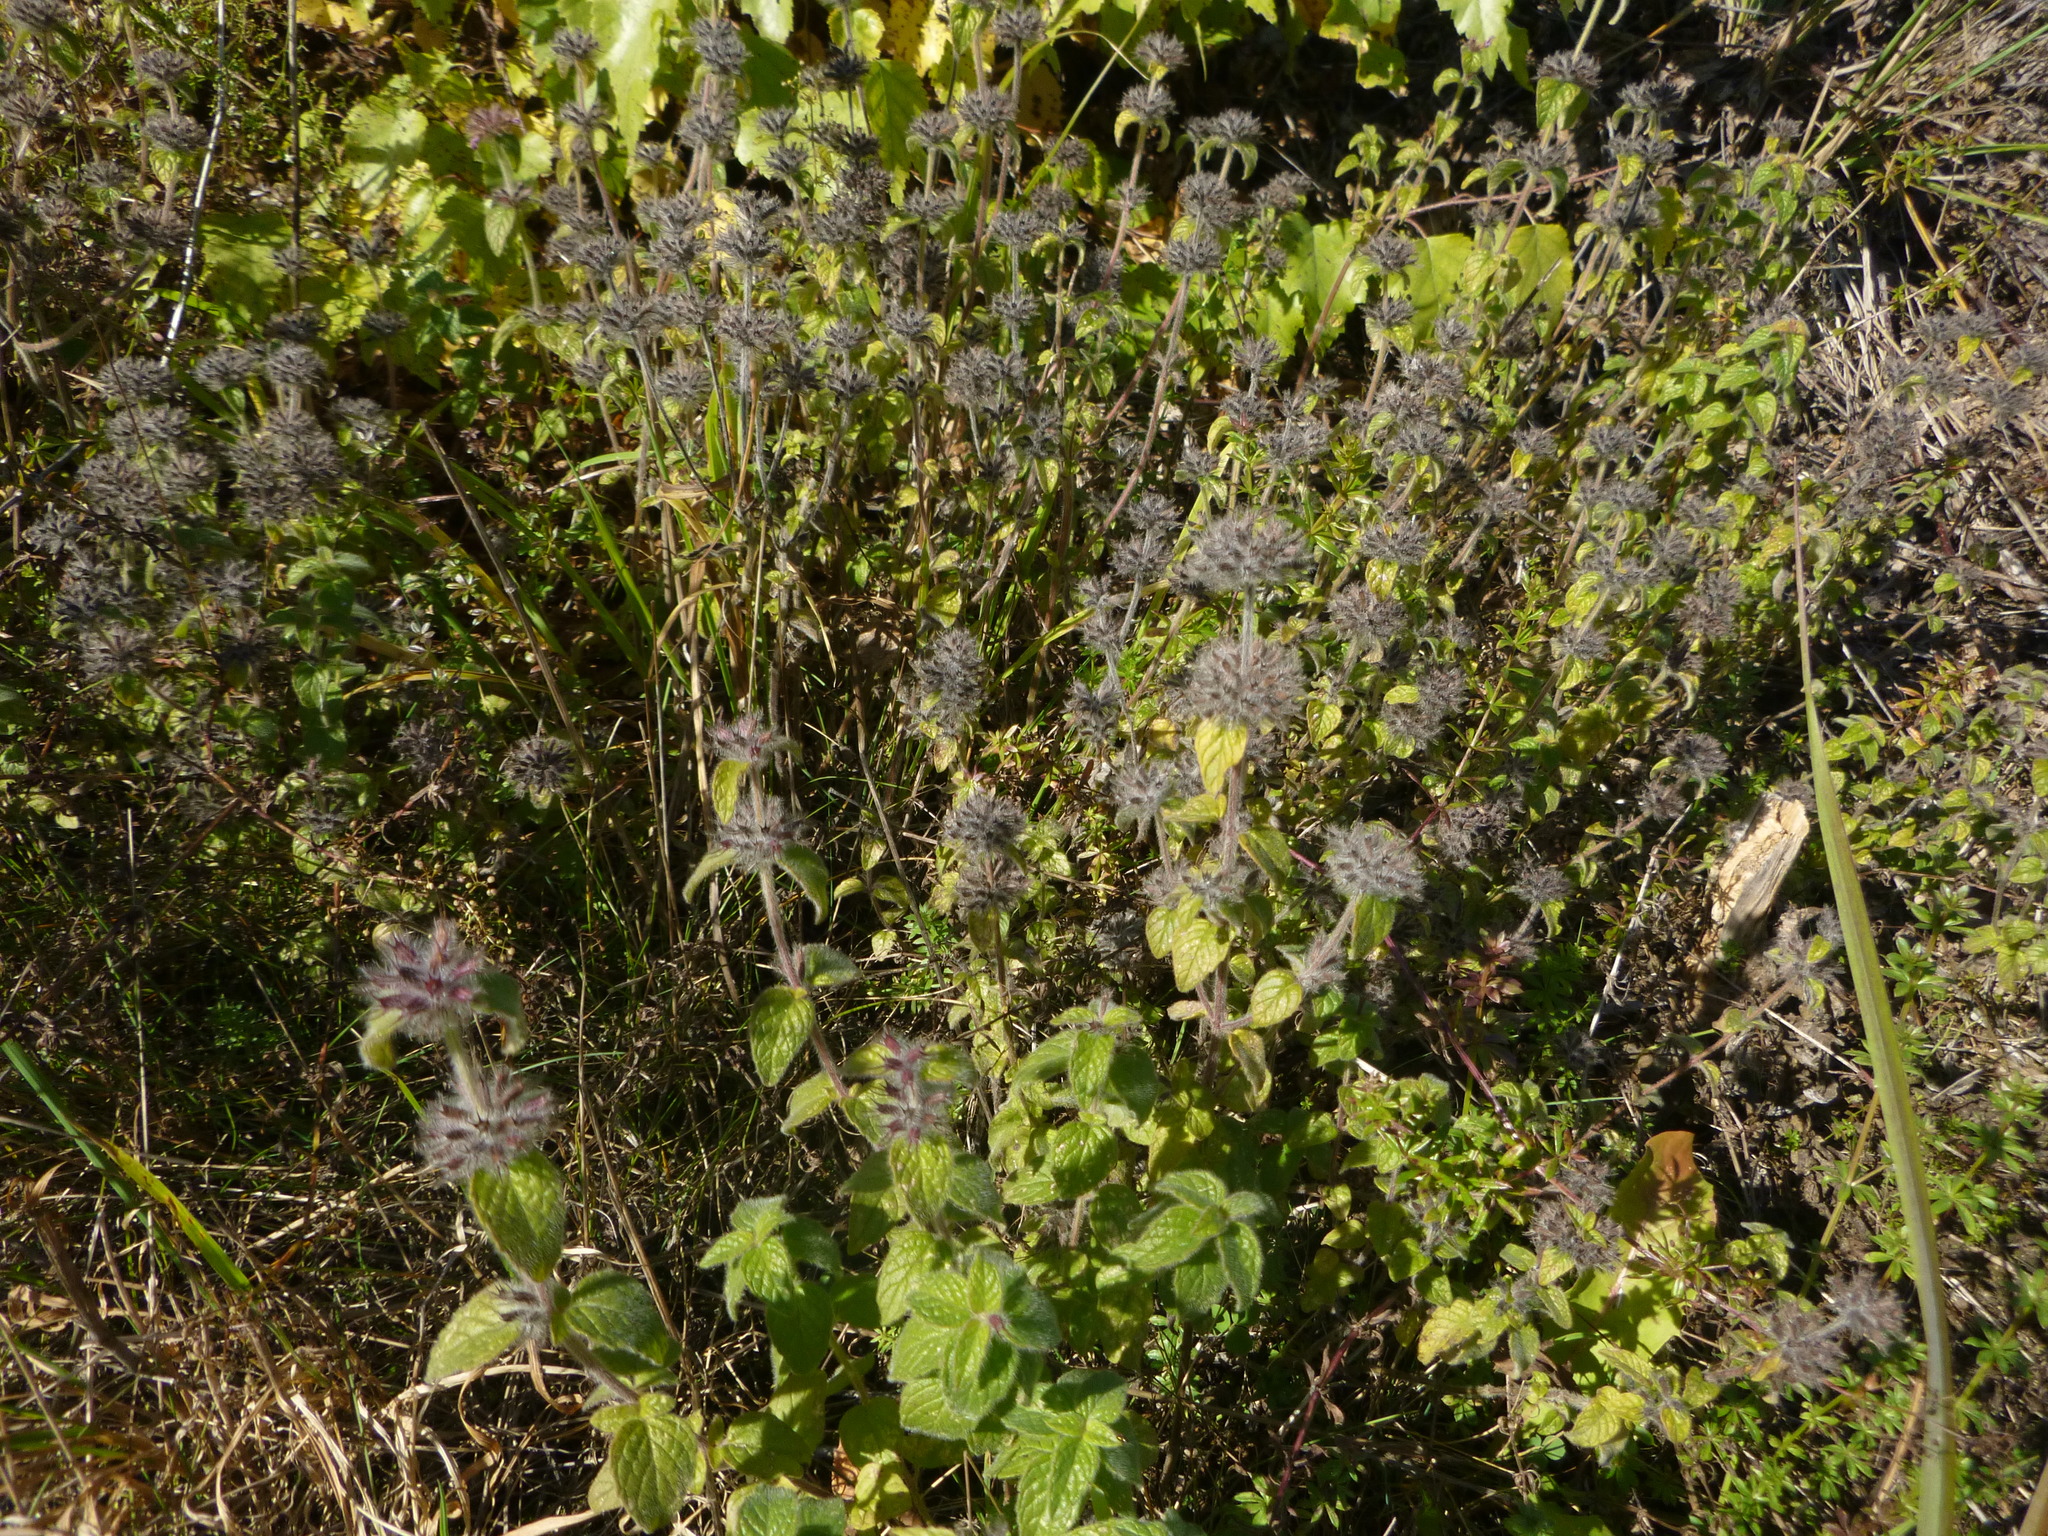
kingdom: Plantae
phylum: Tracheophyta
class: Magnoliopsida
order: Lamiales
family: Lamiaceae
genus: Clinopodium
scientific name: Clinopodium vulgare
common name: Wild basil
